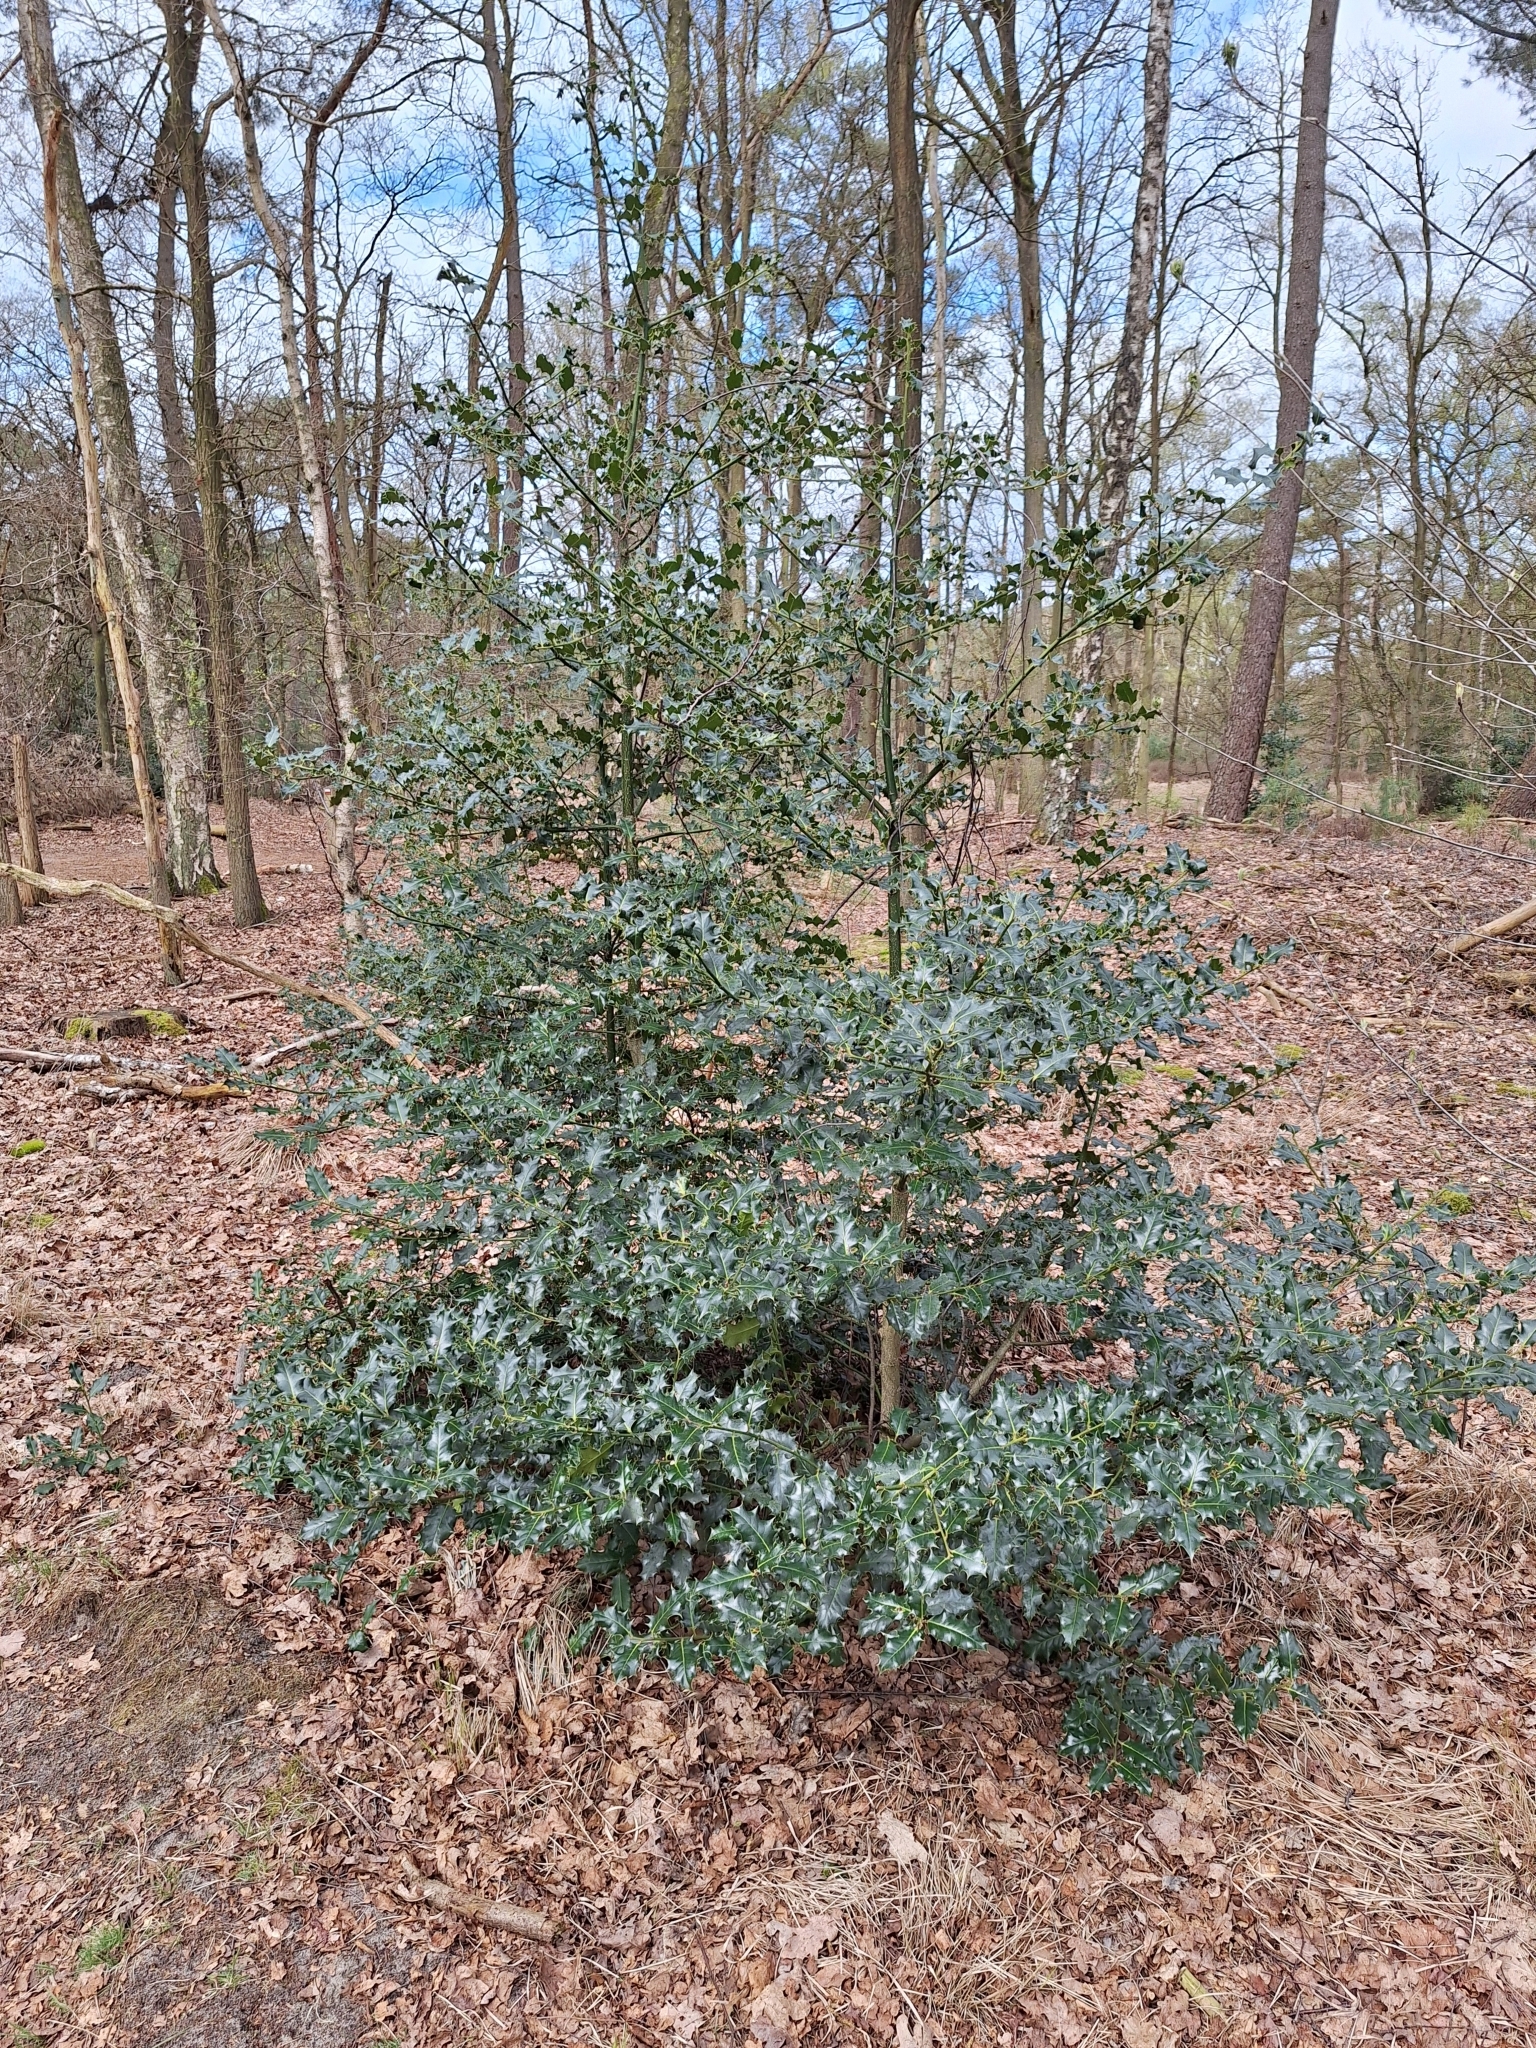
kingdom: Plantae
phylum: Tracheophyta
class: Magnoliopsida
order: Aquifoliales
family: Aquifoliaceae
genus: Ilex
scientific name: Ilex aquifolium
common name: English holly
